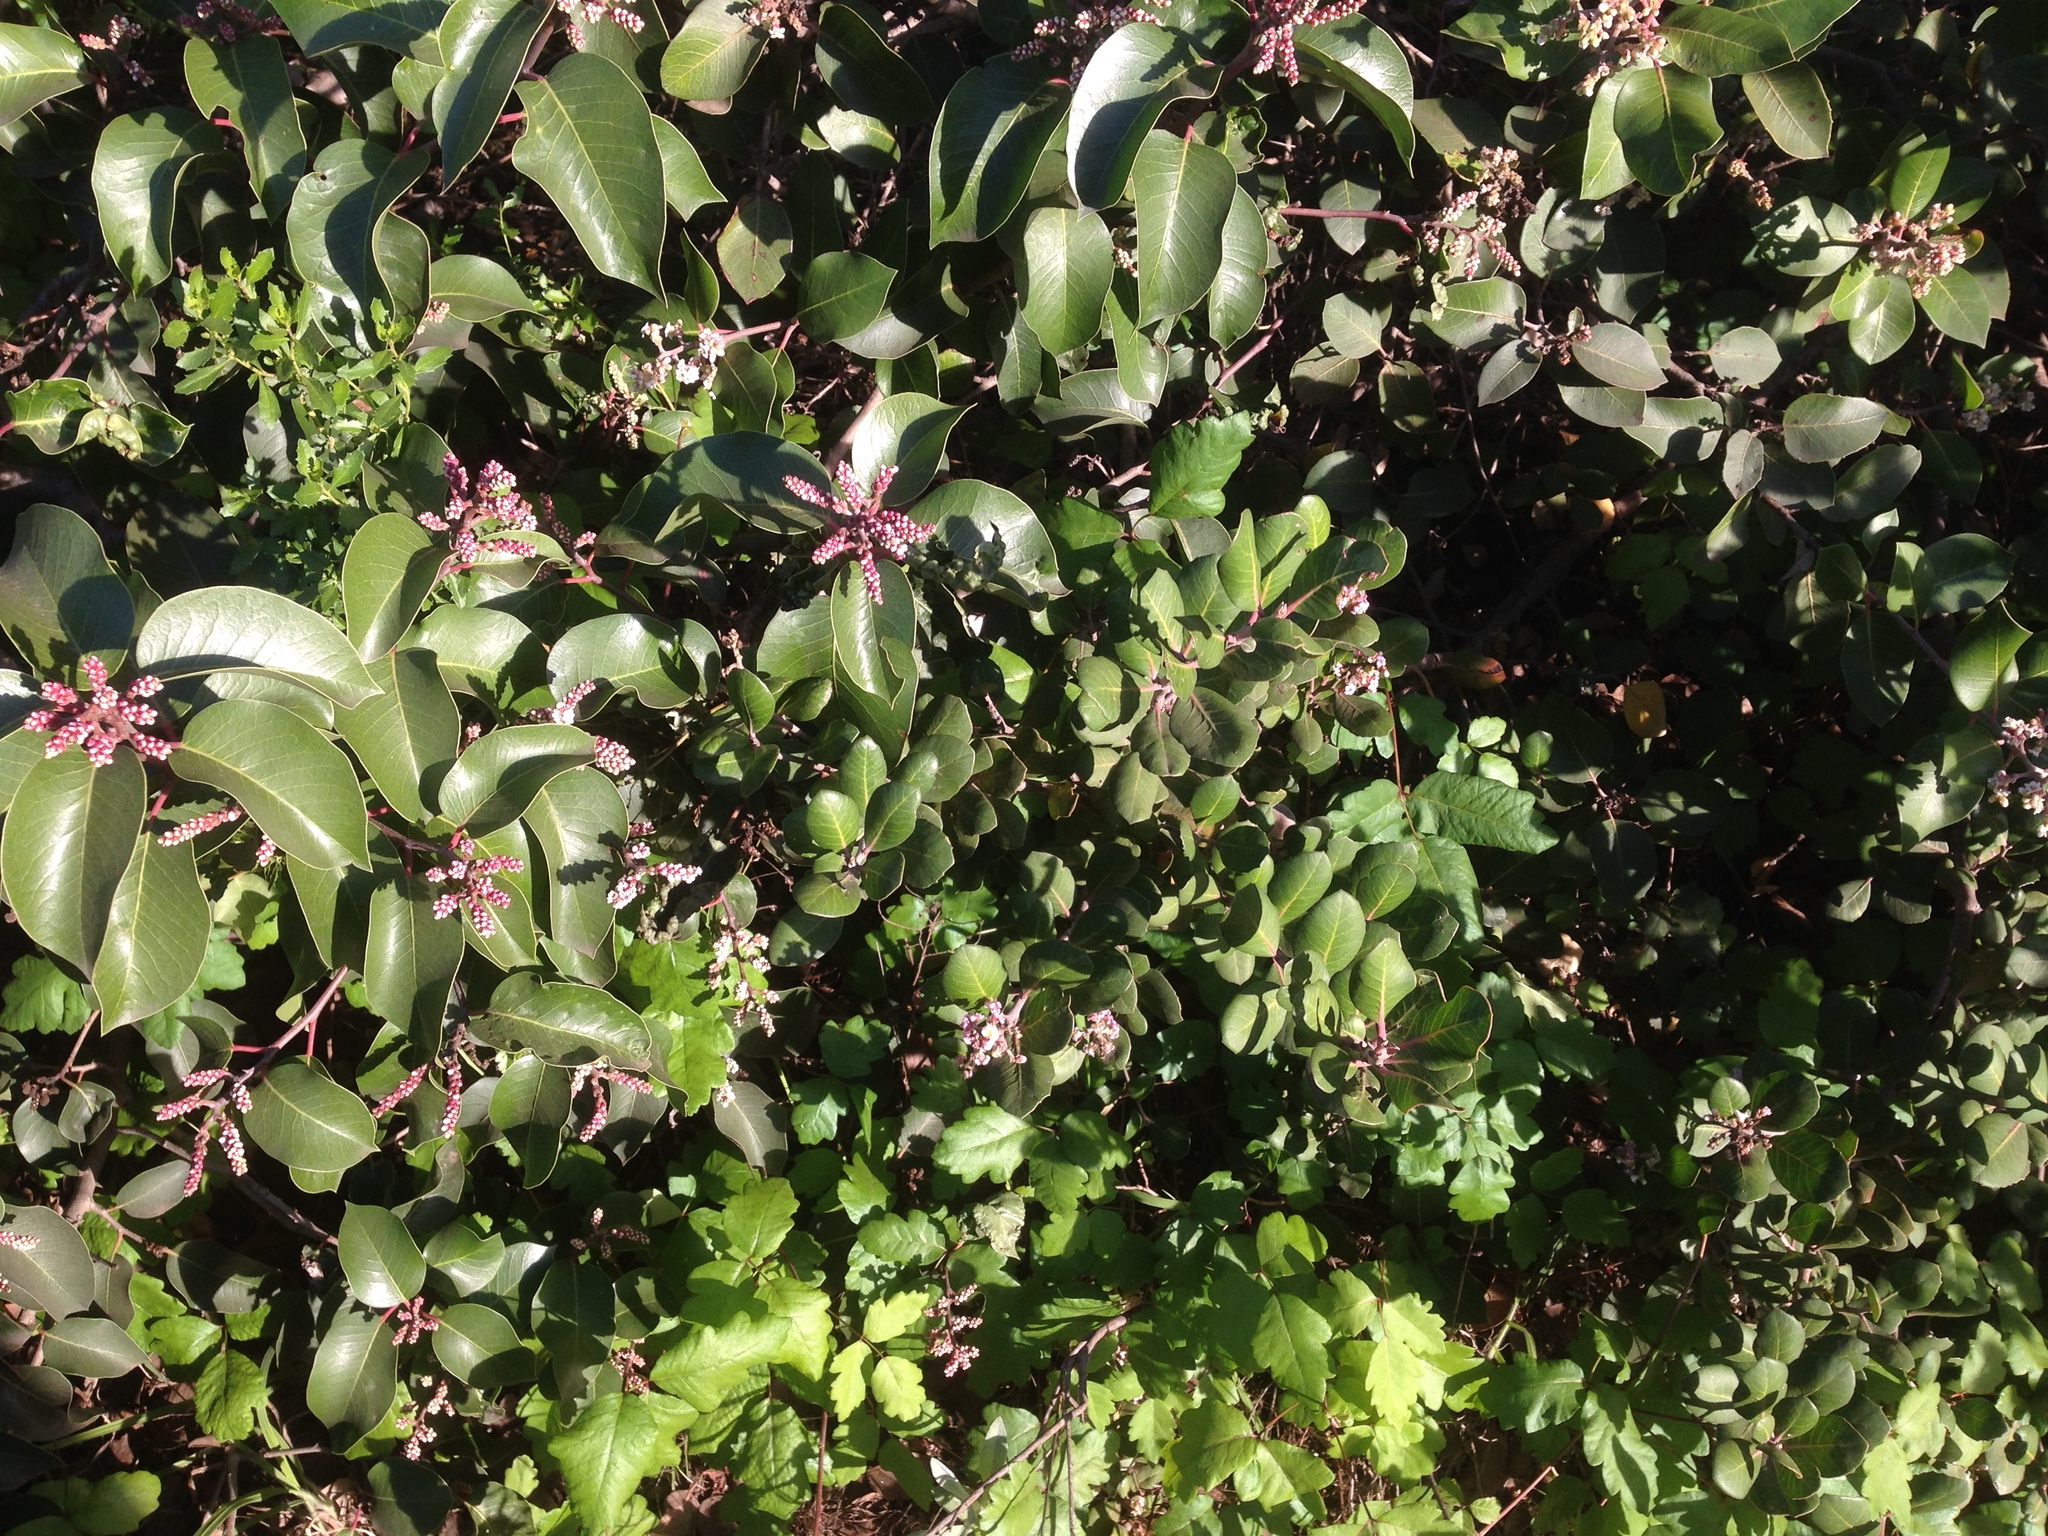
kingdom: Plantae
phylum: Tracheophyta
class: Magnoliopsida
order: Sapindales
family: Anacardiaceae
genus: Rhus
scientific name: Rhus integrifolia
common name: Lemonade sumac
